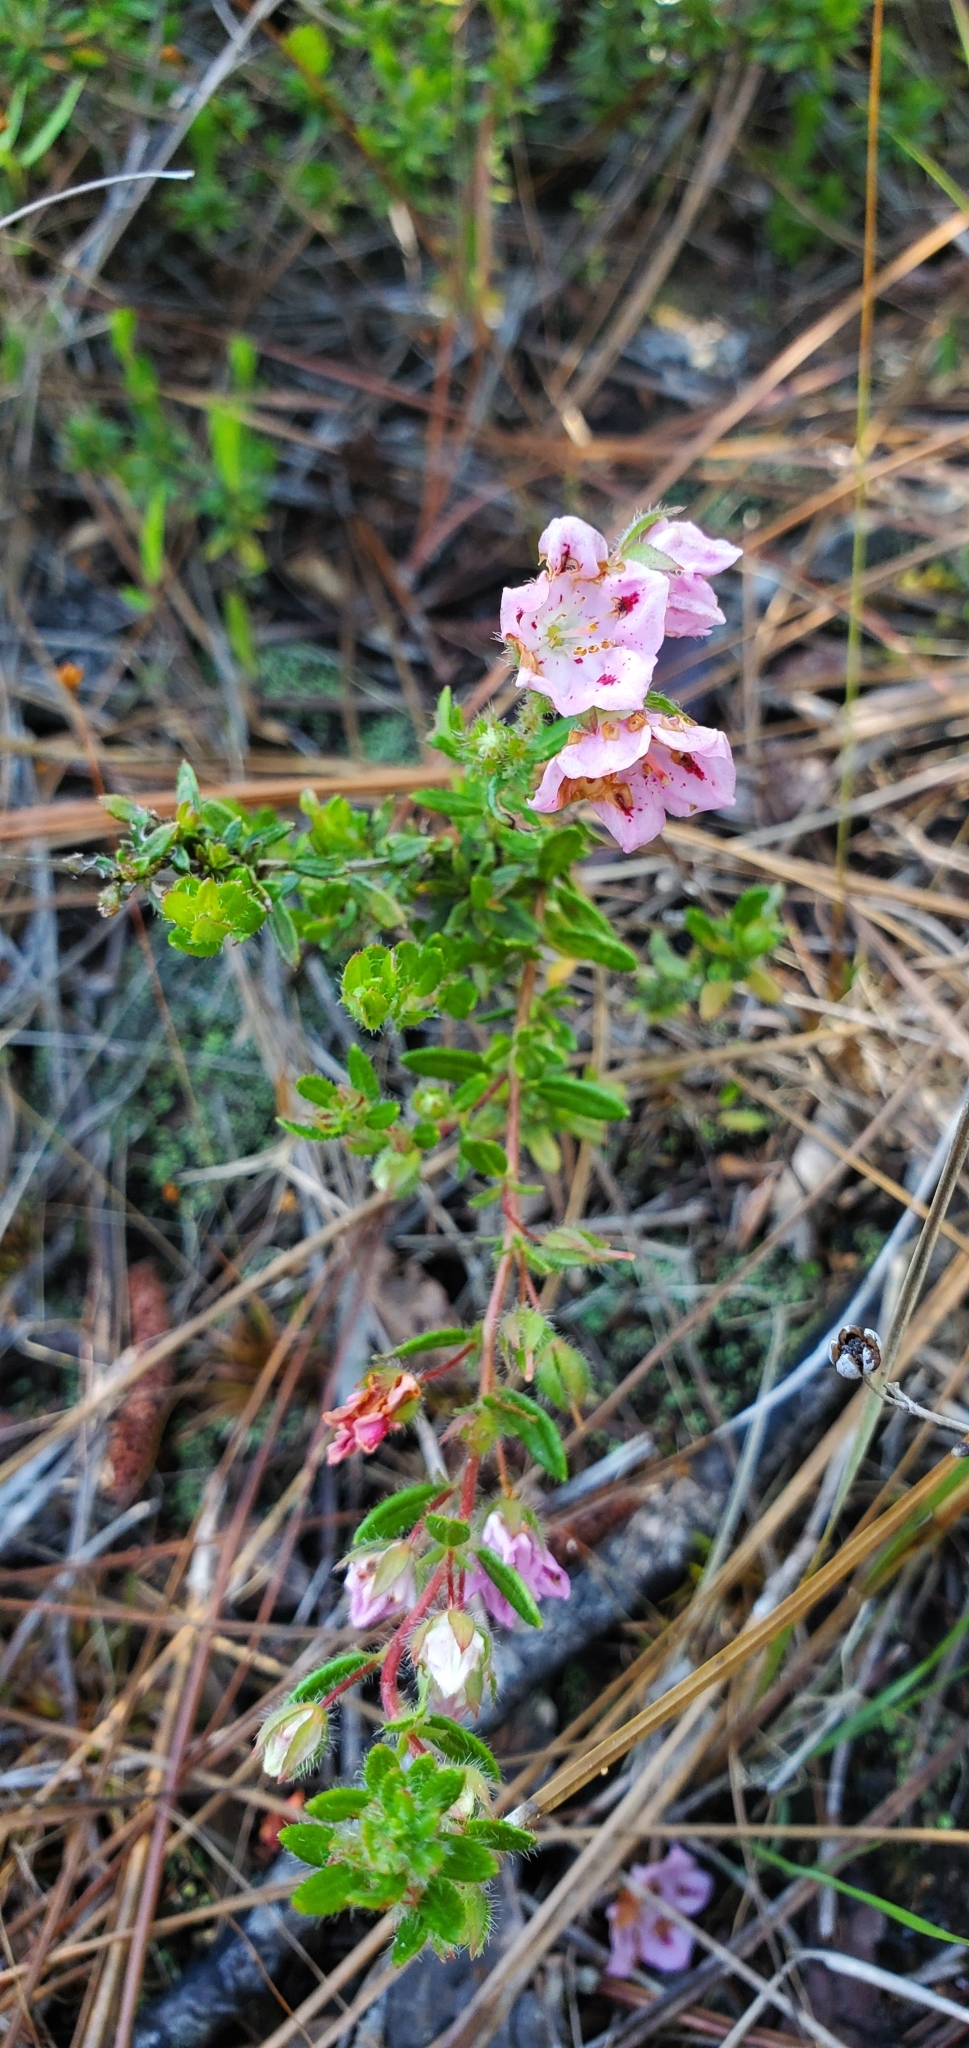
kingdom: Plantae
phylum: Tracheophyta
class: Magnoliopsida
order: Ericales
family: Ericaceae
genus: Kalmia
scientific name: Kalmia hirsuta
